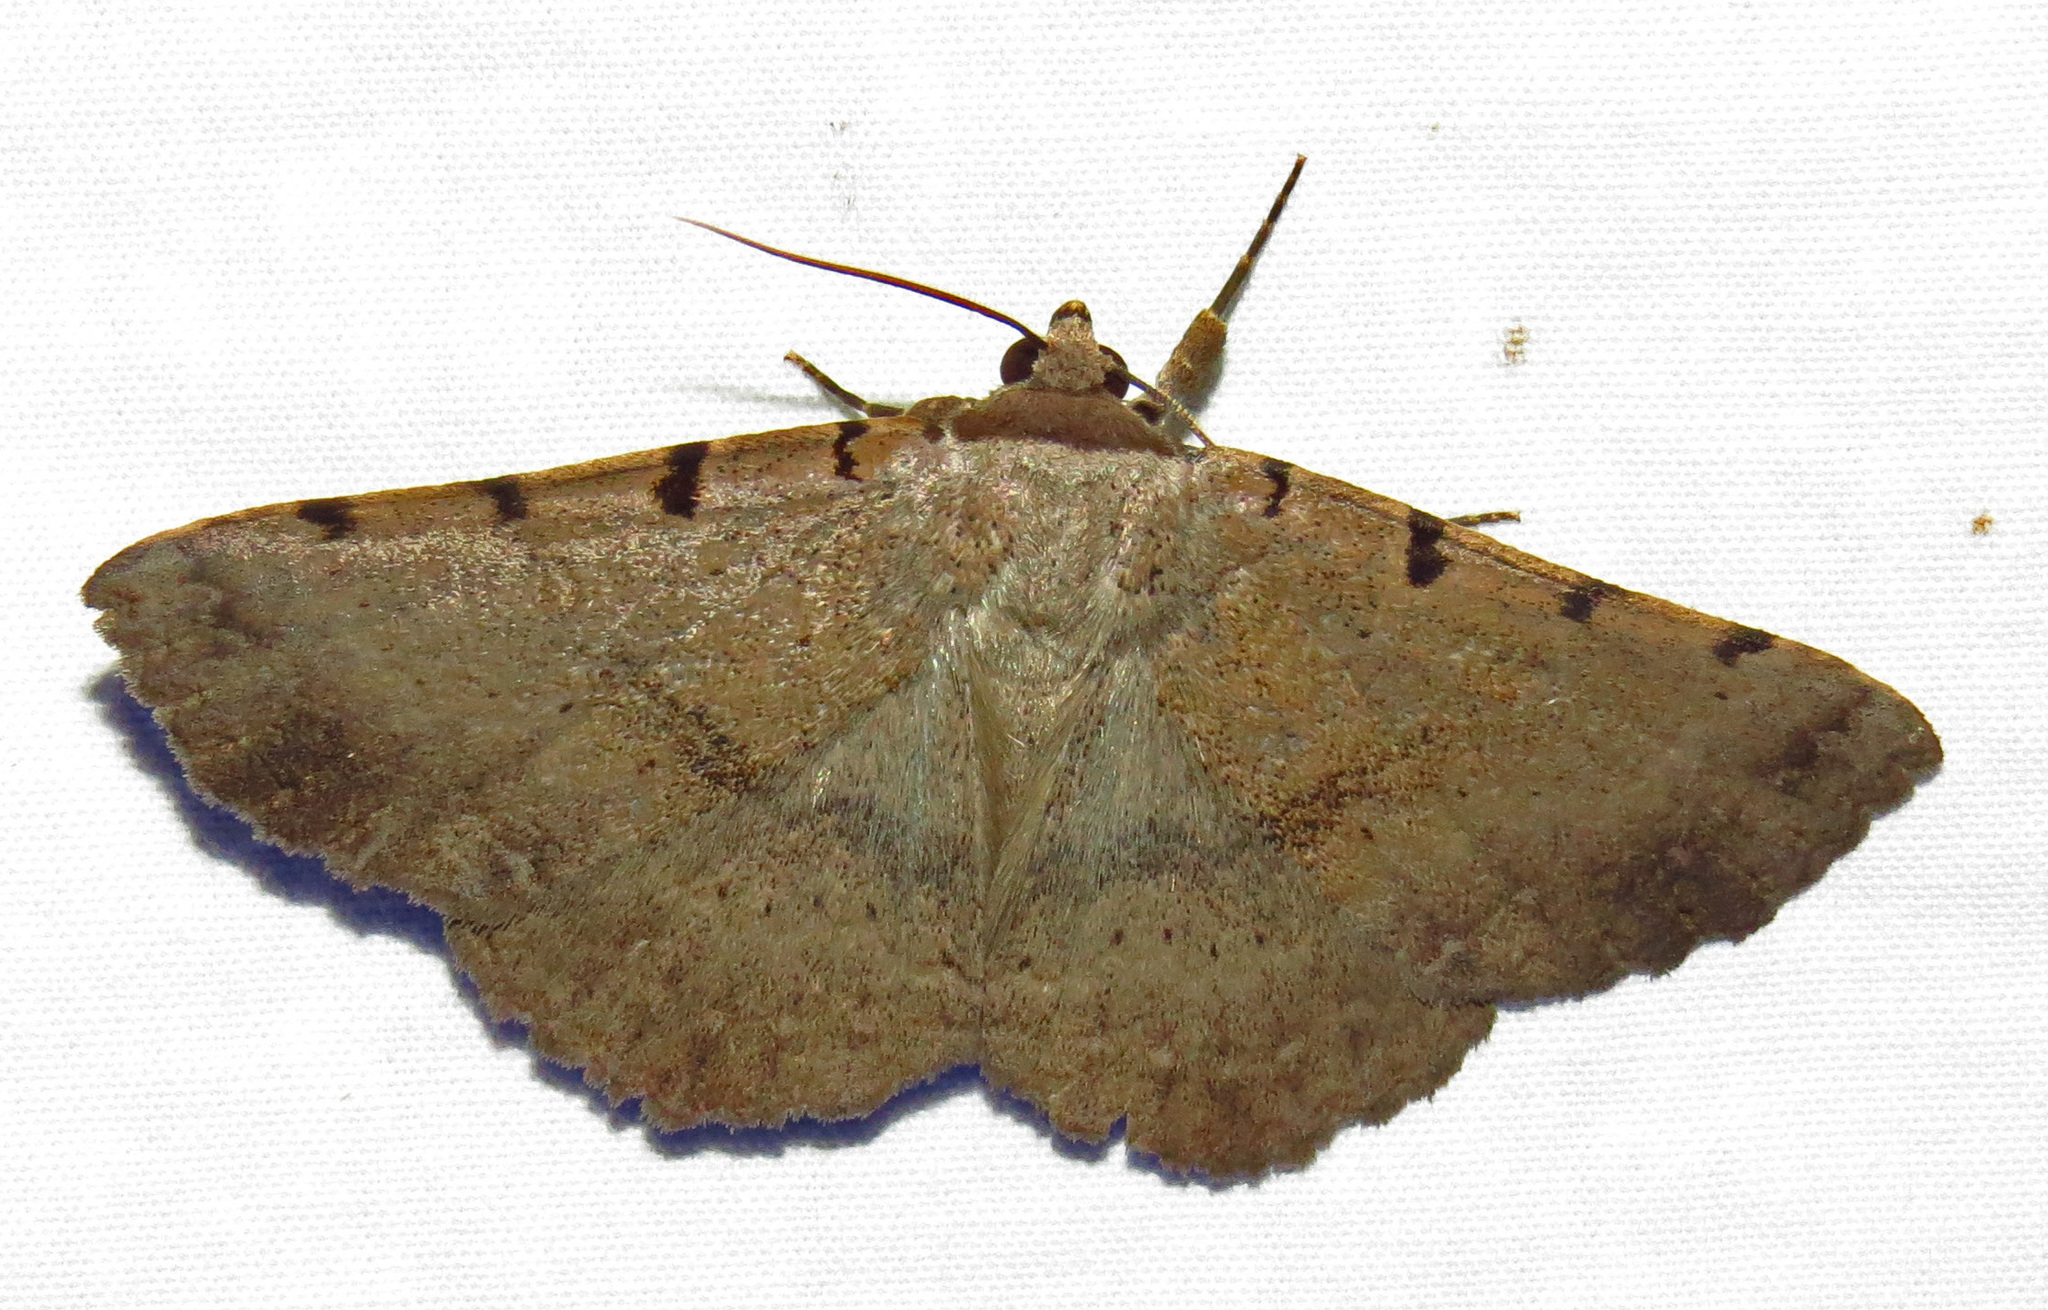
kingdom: Animalia
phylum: Arthropoda
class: Insecta
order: Lepidoptera
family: Erebidae
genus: Spiloloma
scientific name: Spiloloma lunilinea
